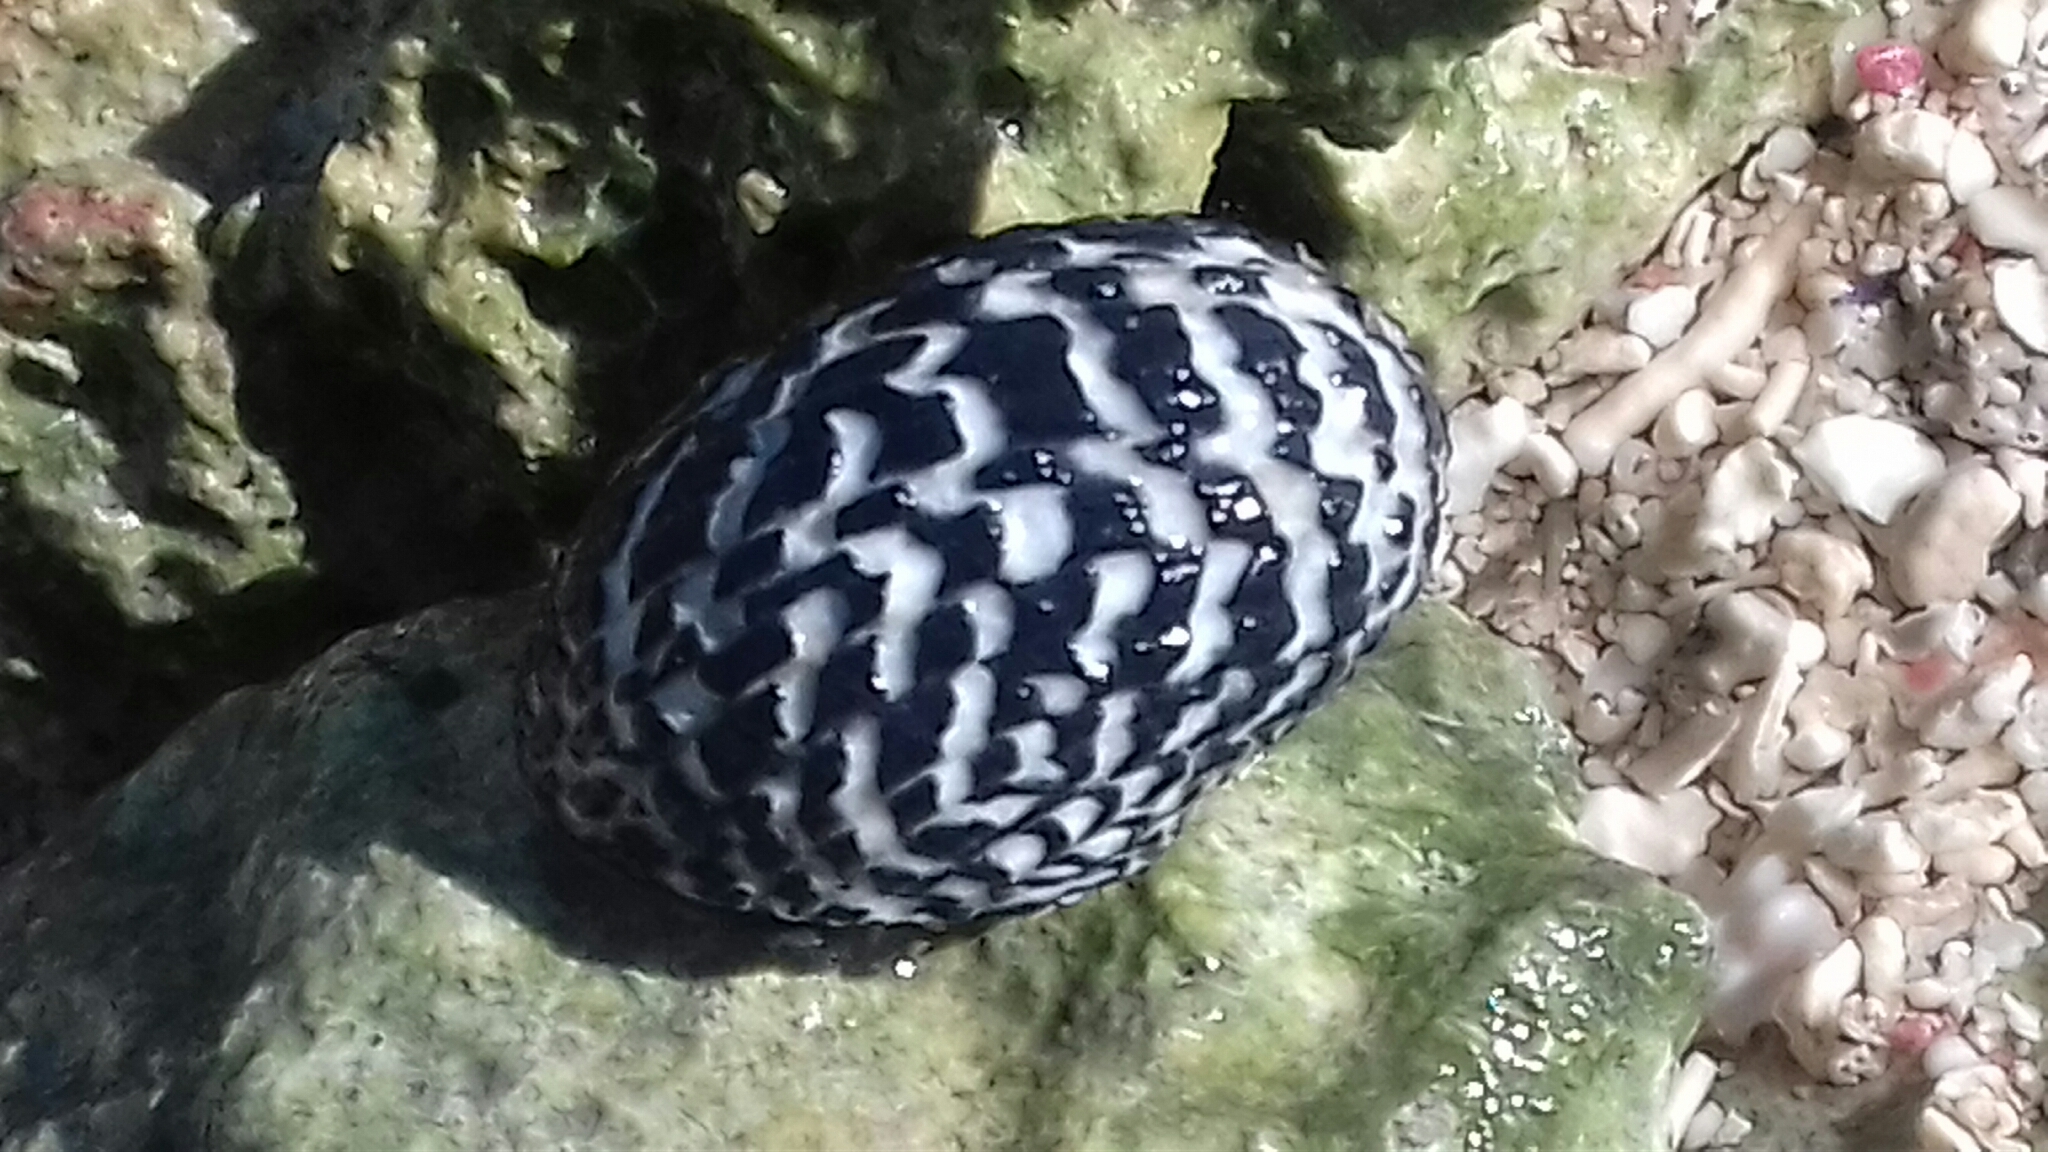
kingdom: Animalia
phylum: Mollusca
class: Gastropoda
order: Cycloneritida
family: Neritidae
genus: Nerita
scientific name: Nerita tessellata
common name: Checkered nerite
